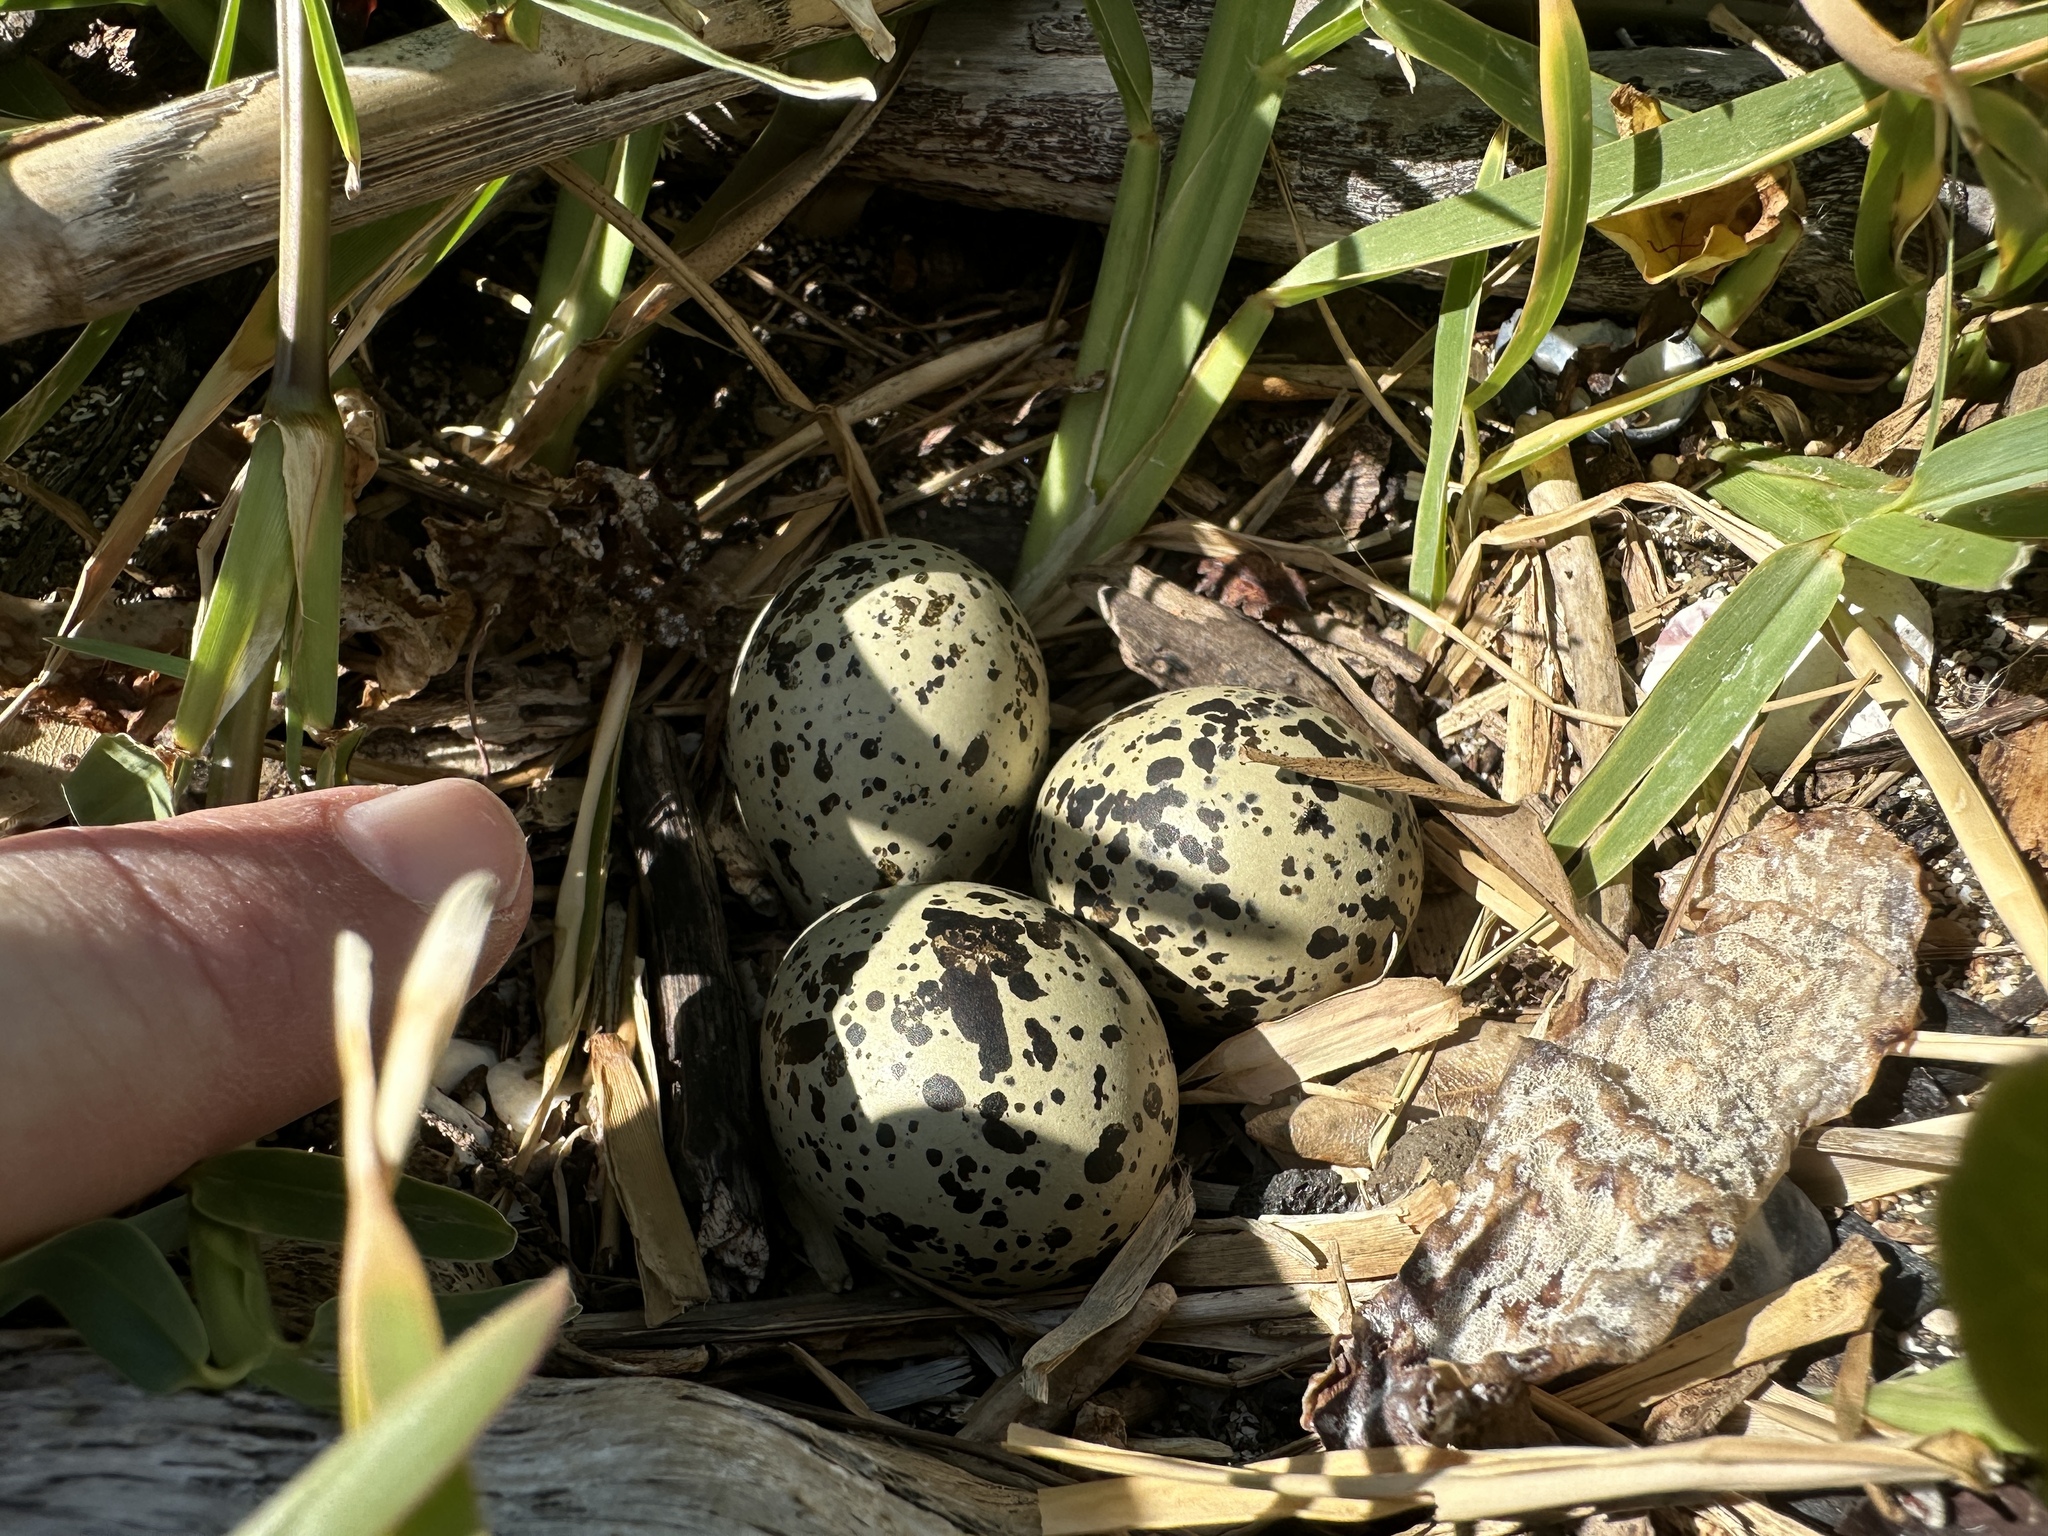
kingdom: Animalia
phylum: Chordata
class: Aves
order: Charadriiformes
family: Charadriidae
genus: Anarhynchus
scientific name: Anarhynchus
